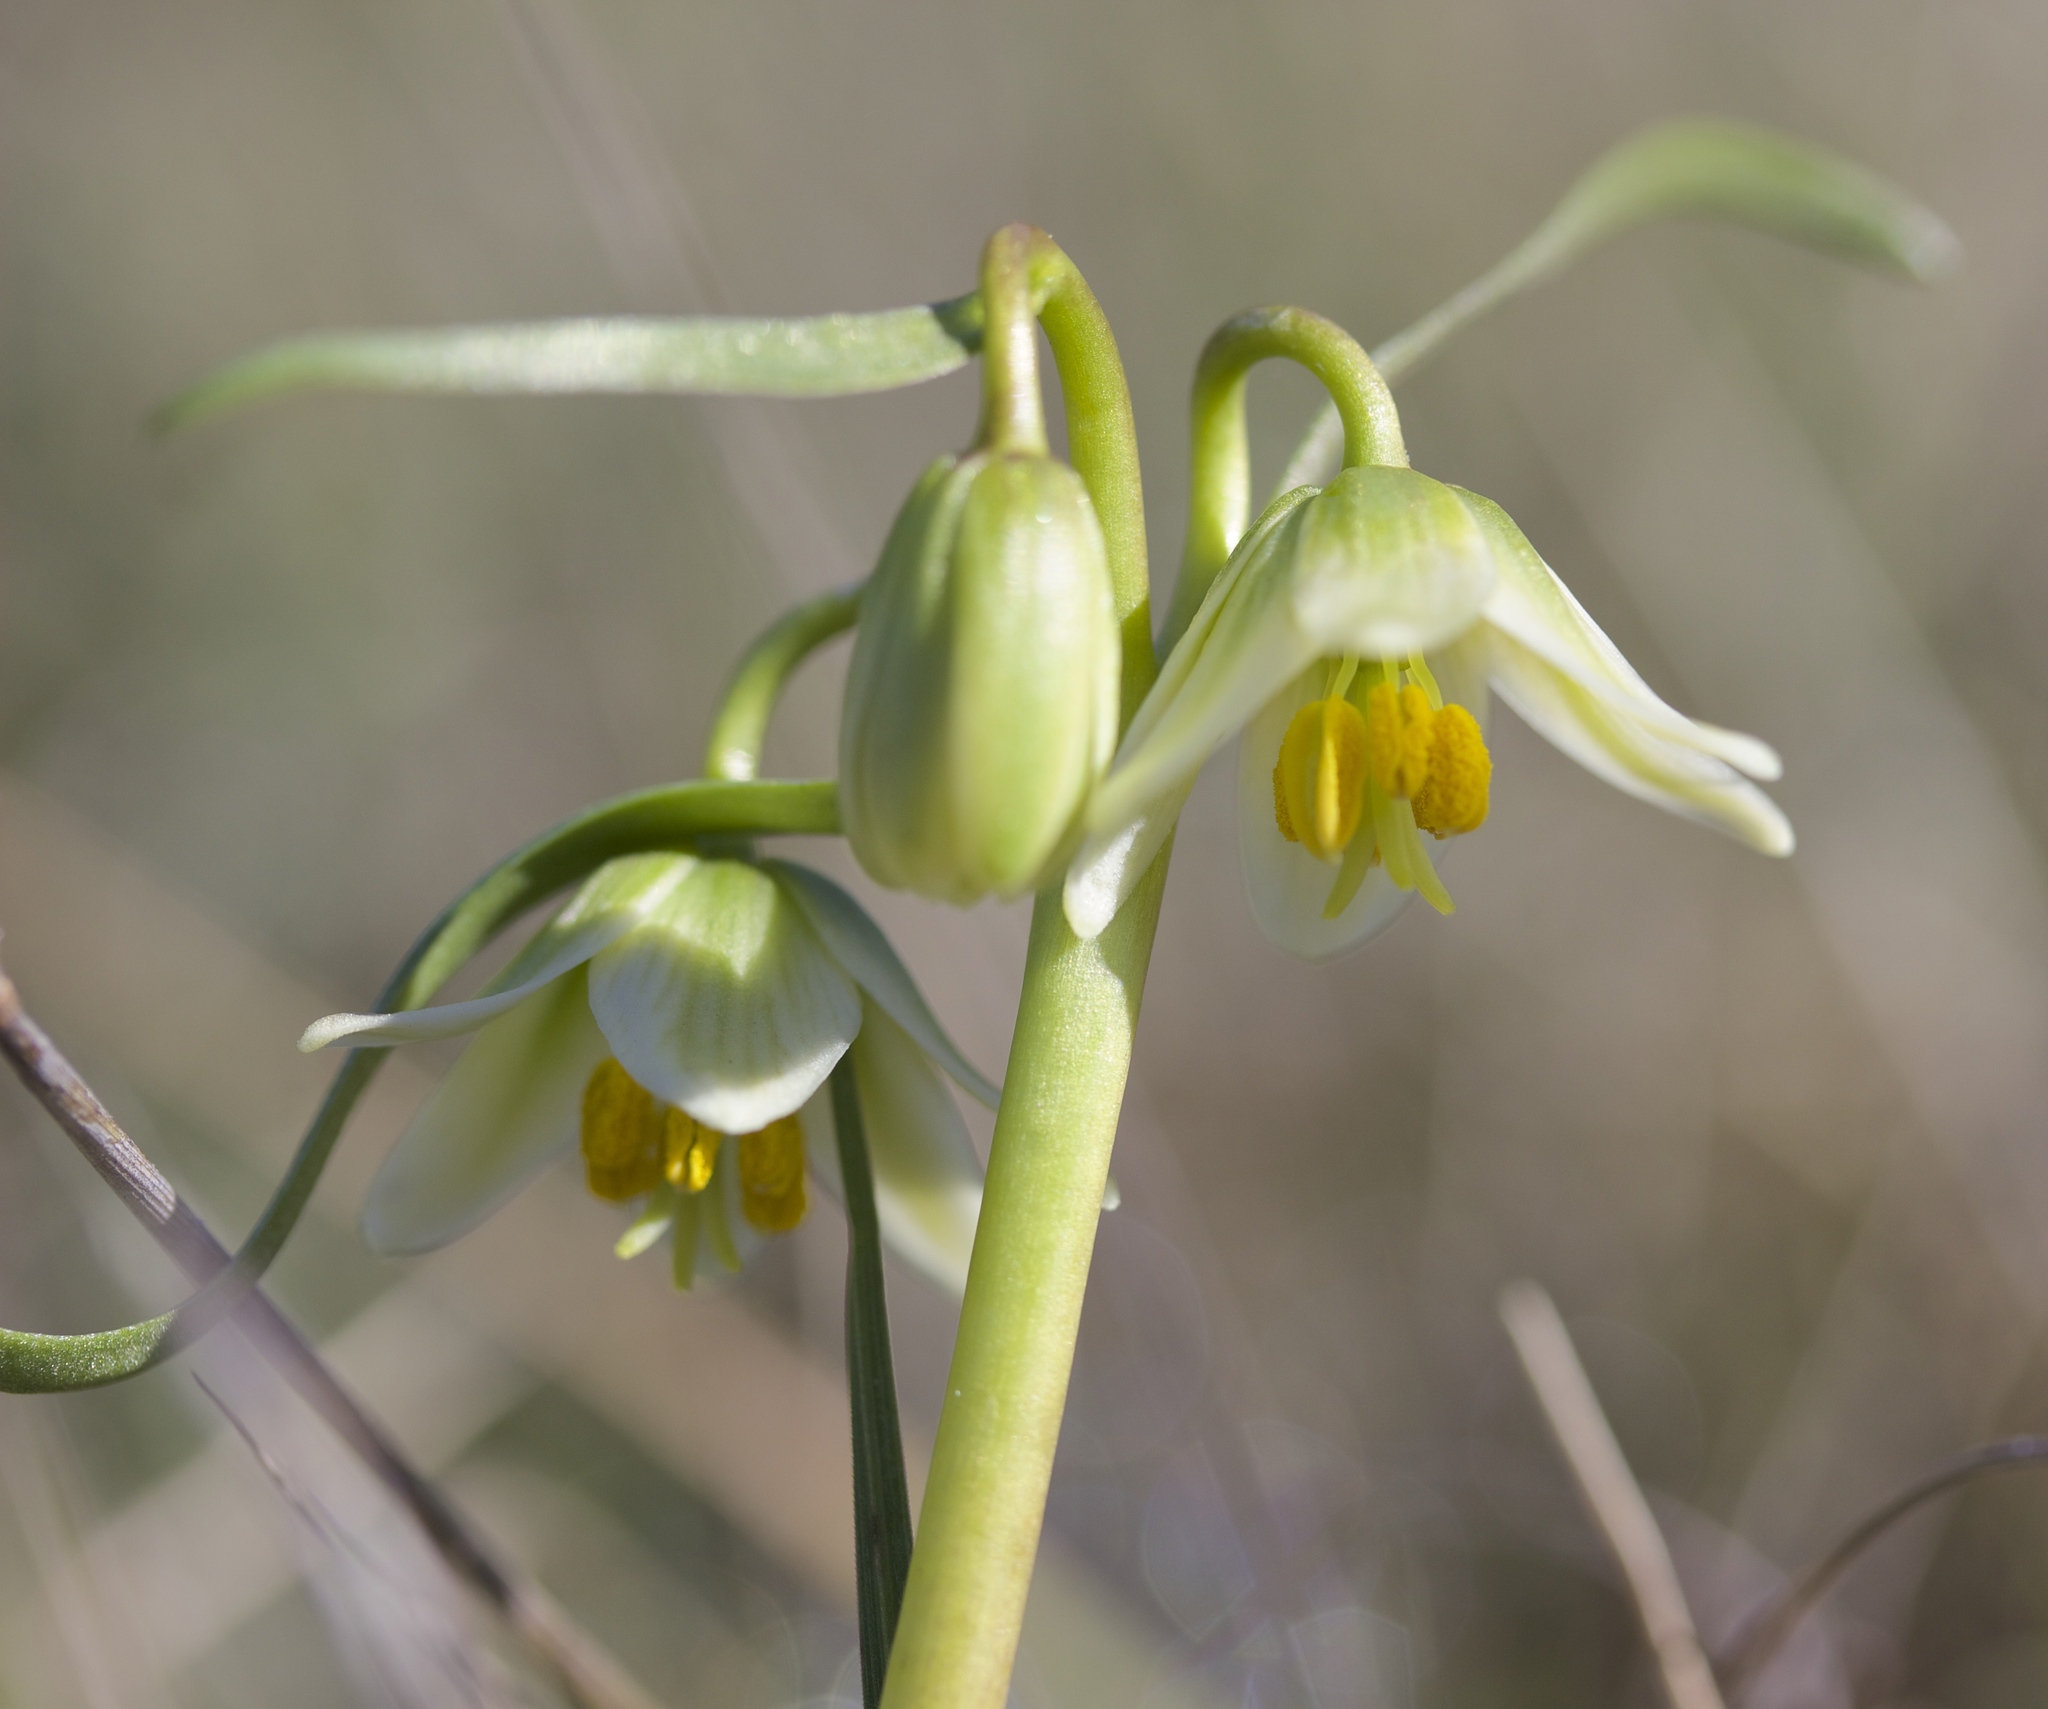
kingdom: Plantae
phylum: Tracheophyta
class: Liliopsida
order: Liliales
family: Liliaceae
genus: Fritillaria
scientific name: Fritillaria liliacea
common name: Fragrant fritillary
